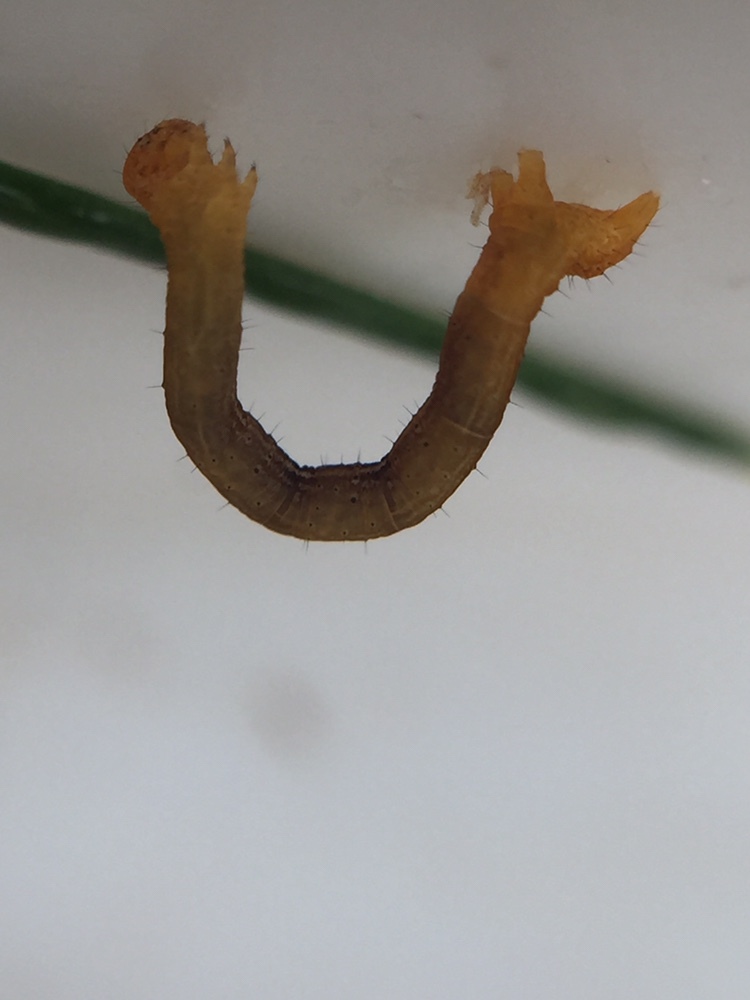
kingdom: Animalia
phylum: Arthropoda
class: Insecta
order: Lepidoptera
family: Geometridae
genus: Cyclophora
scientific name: Cyclophora obstataria
